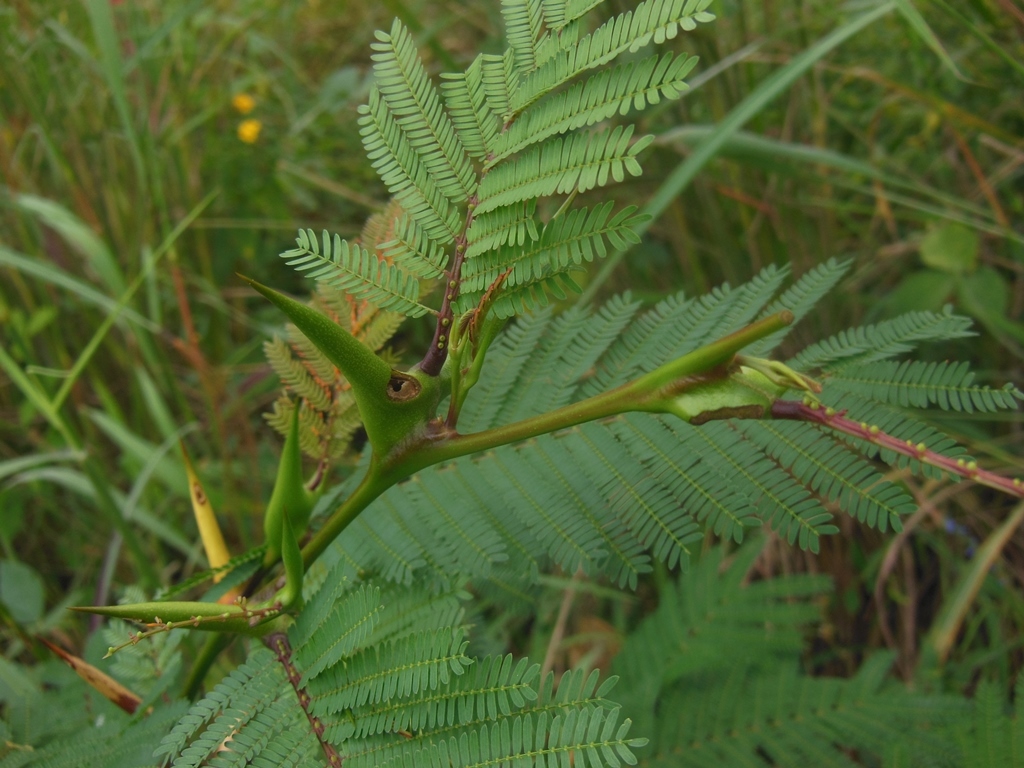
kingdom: Plantae
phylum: Tracheophyta
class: Magnoliopsida
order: Fabales
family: Fabaceae
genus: Vachellia
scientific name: Vachellia cornigera
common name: Bullhorn wattle
